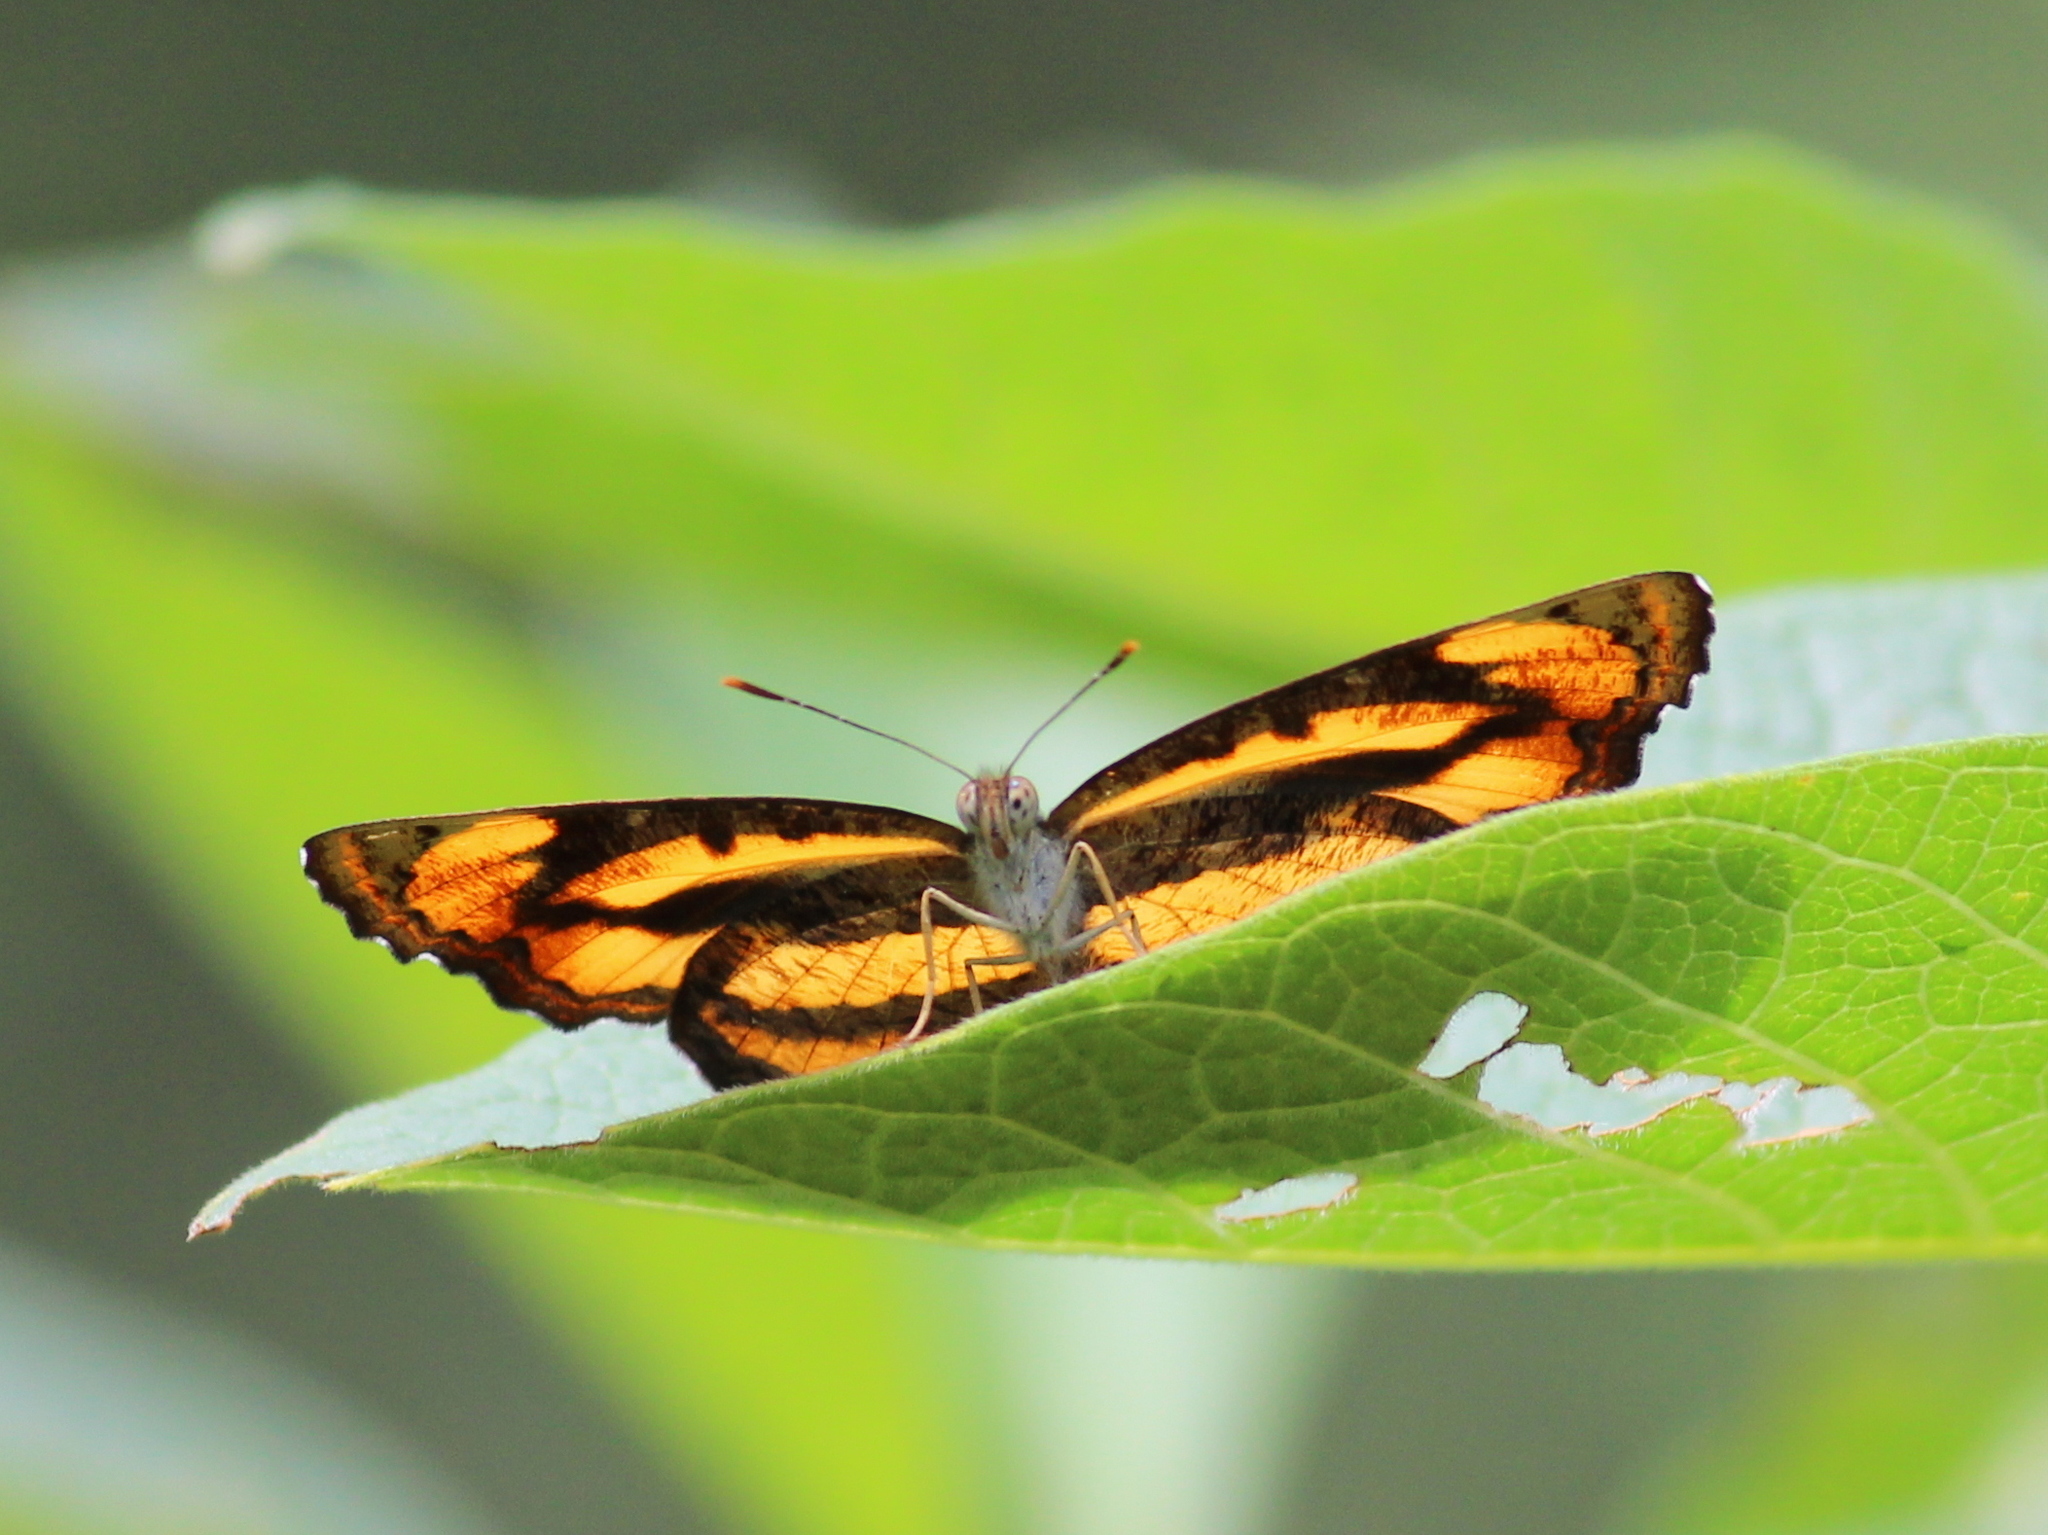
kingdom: Animalia
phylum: Arthropoda
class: Insecta
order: Lepidoptera
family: Nymphalidae
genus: Pantoporia
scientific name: Pantoporia hordonia
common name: Common lascar
